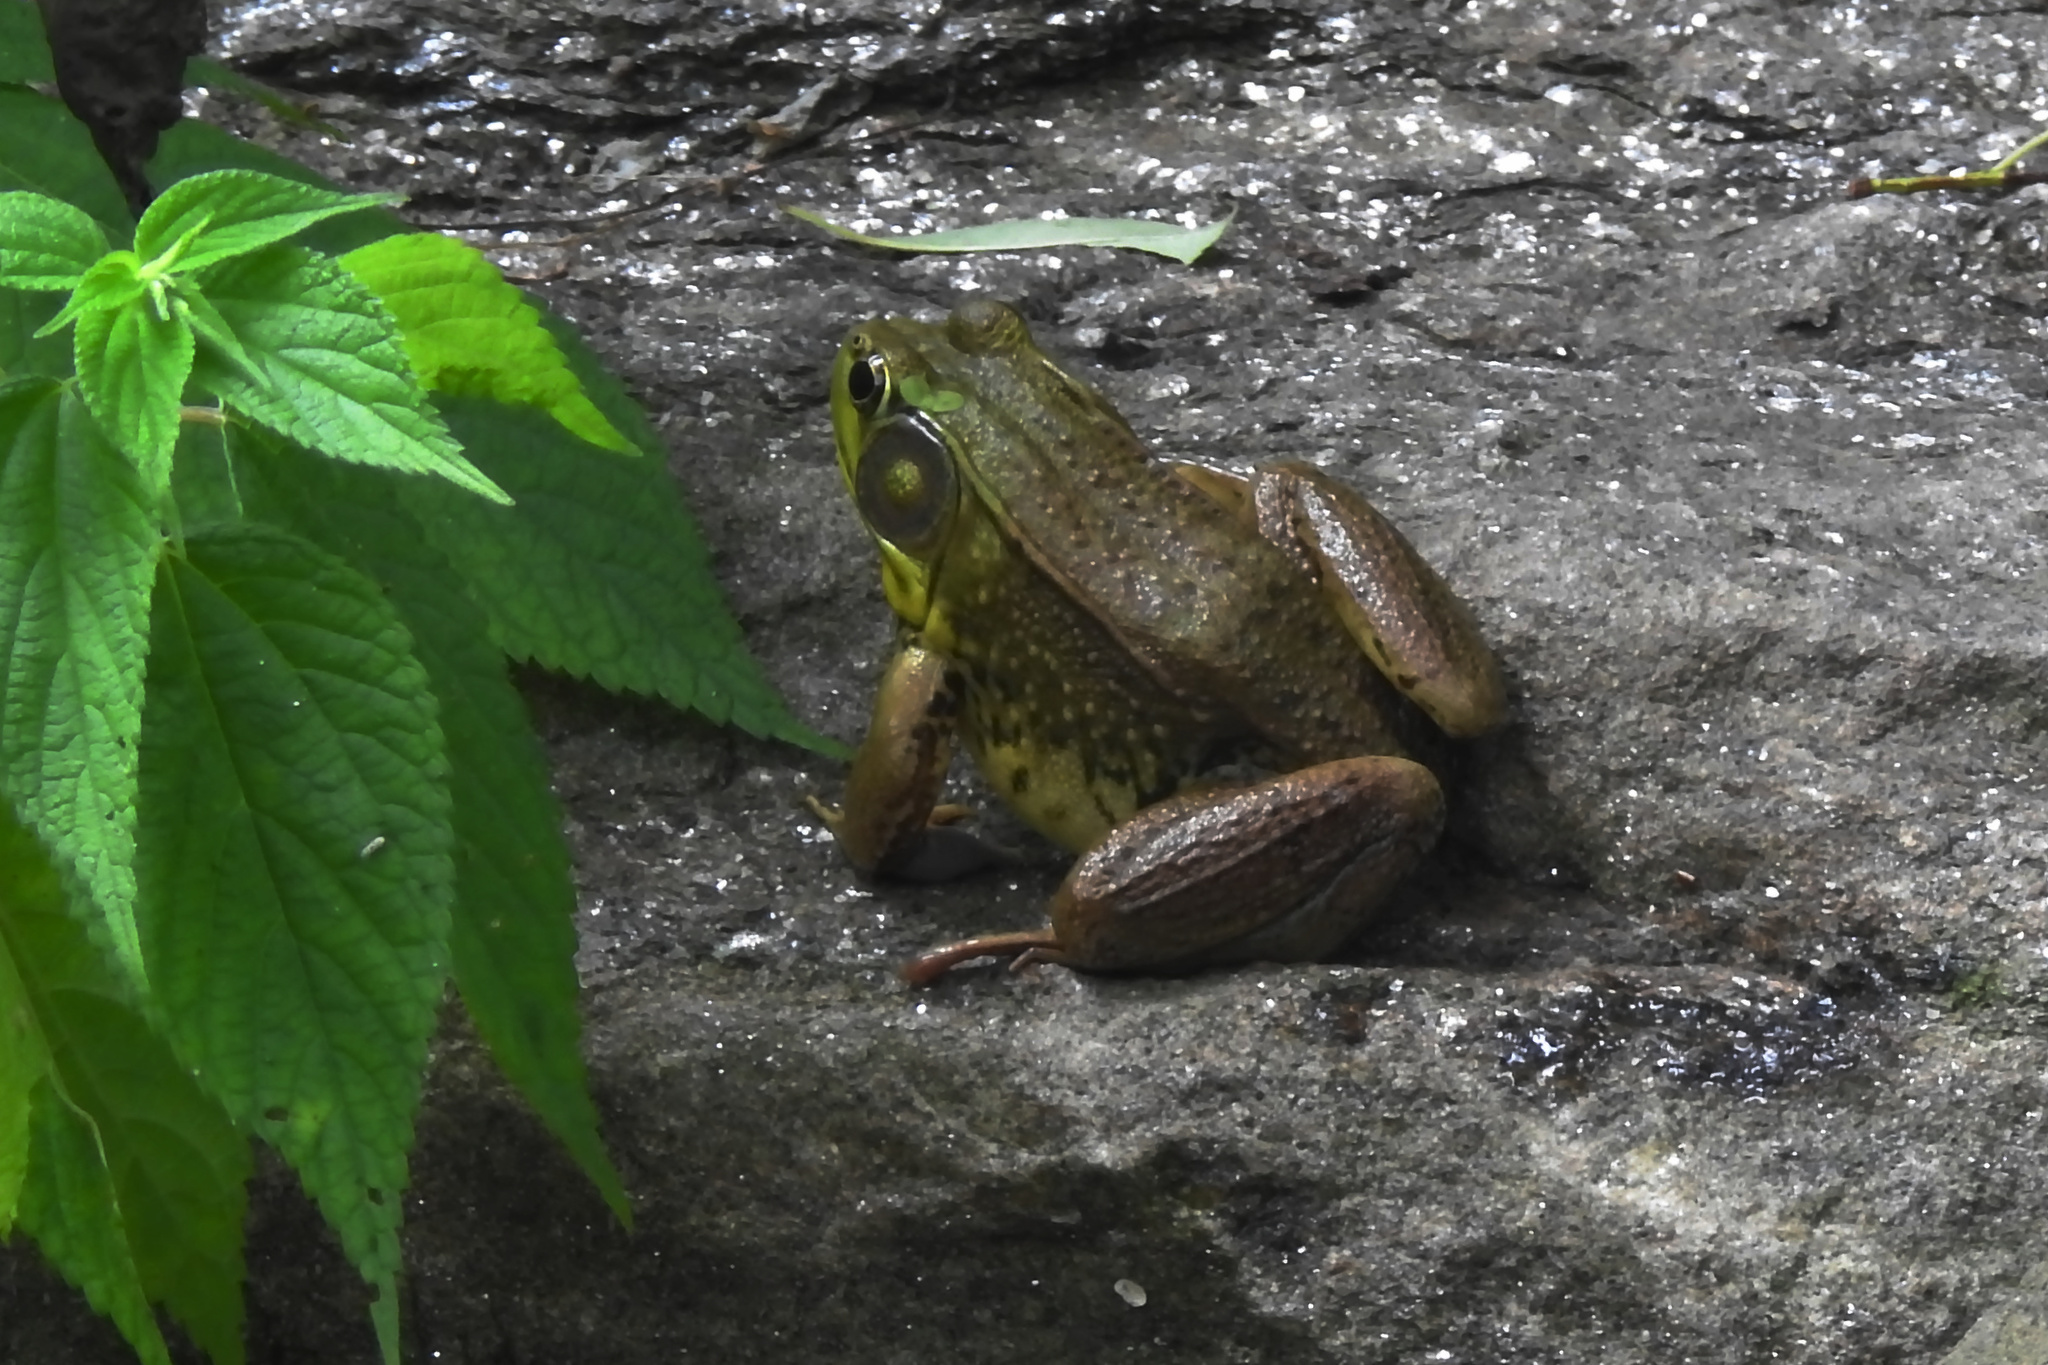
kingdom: Animalia
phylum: Chordata
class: Amphibia
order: Anura
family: Ranidae
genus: Lithobates
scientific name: Lithobates clamitans
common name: Green frog
